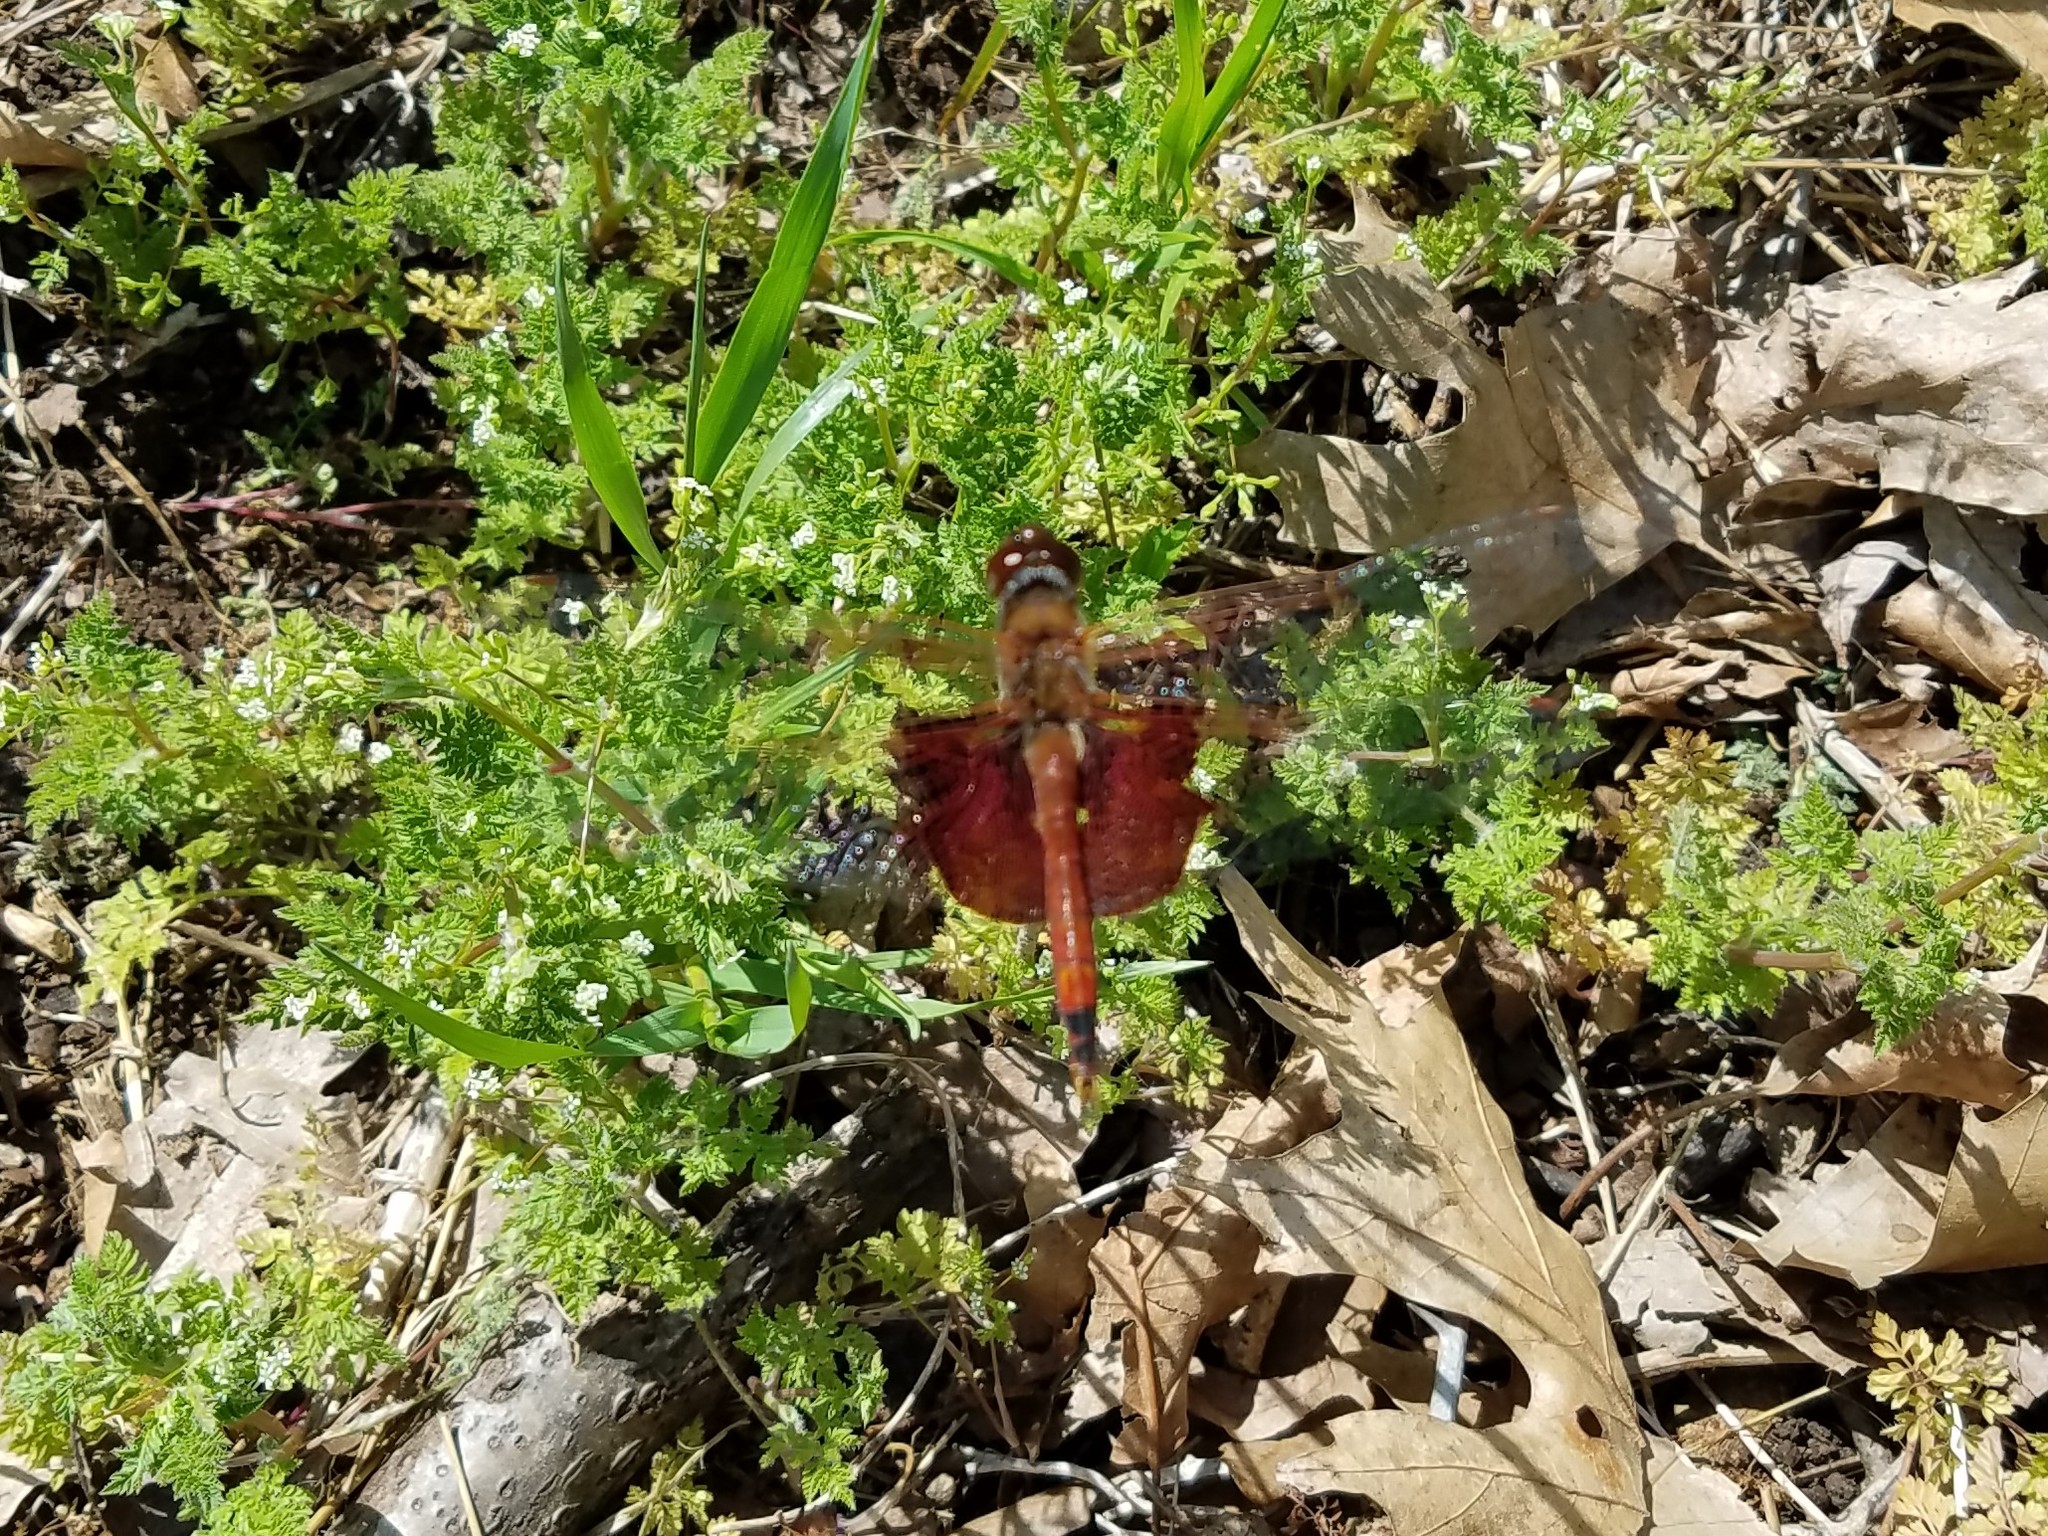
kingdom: Animalia
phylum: Arthropoda
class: Insecta
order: Odonata
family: Libellulidae
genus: Tramea
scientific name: Tramea carolina
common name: Carolina saddlebags
